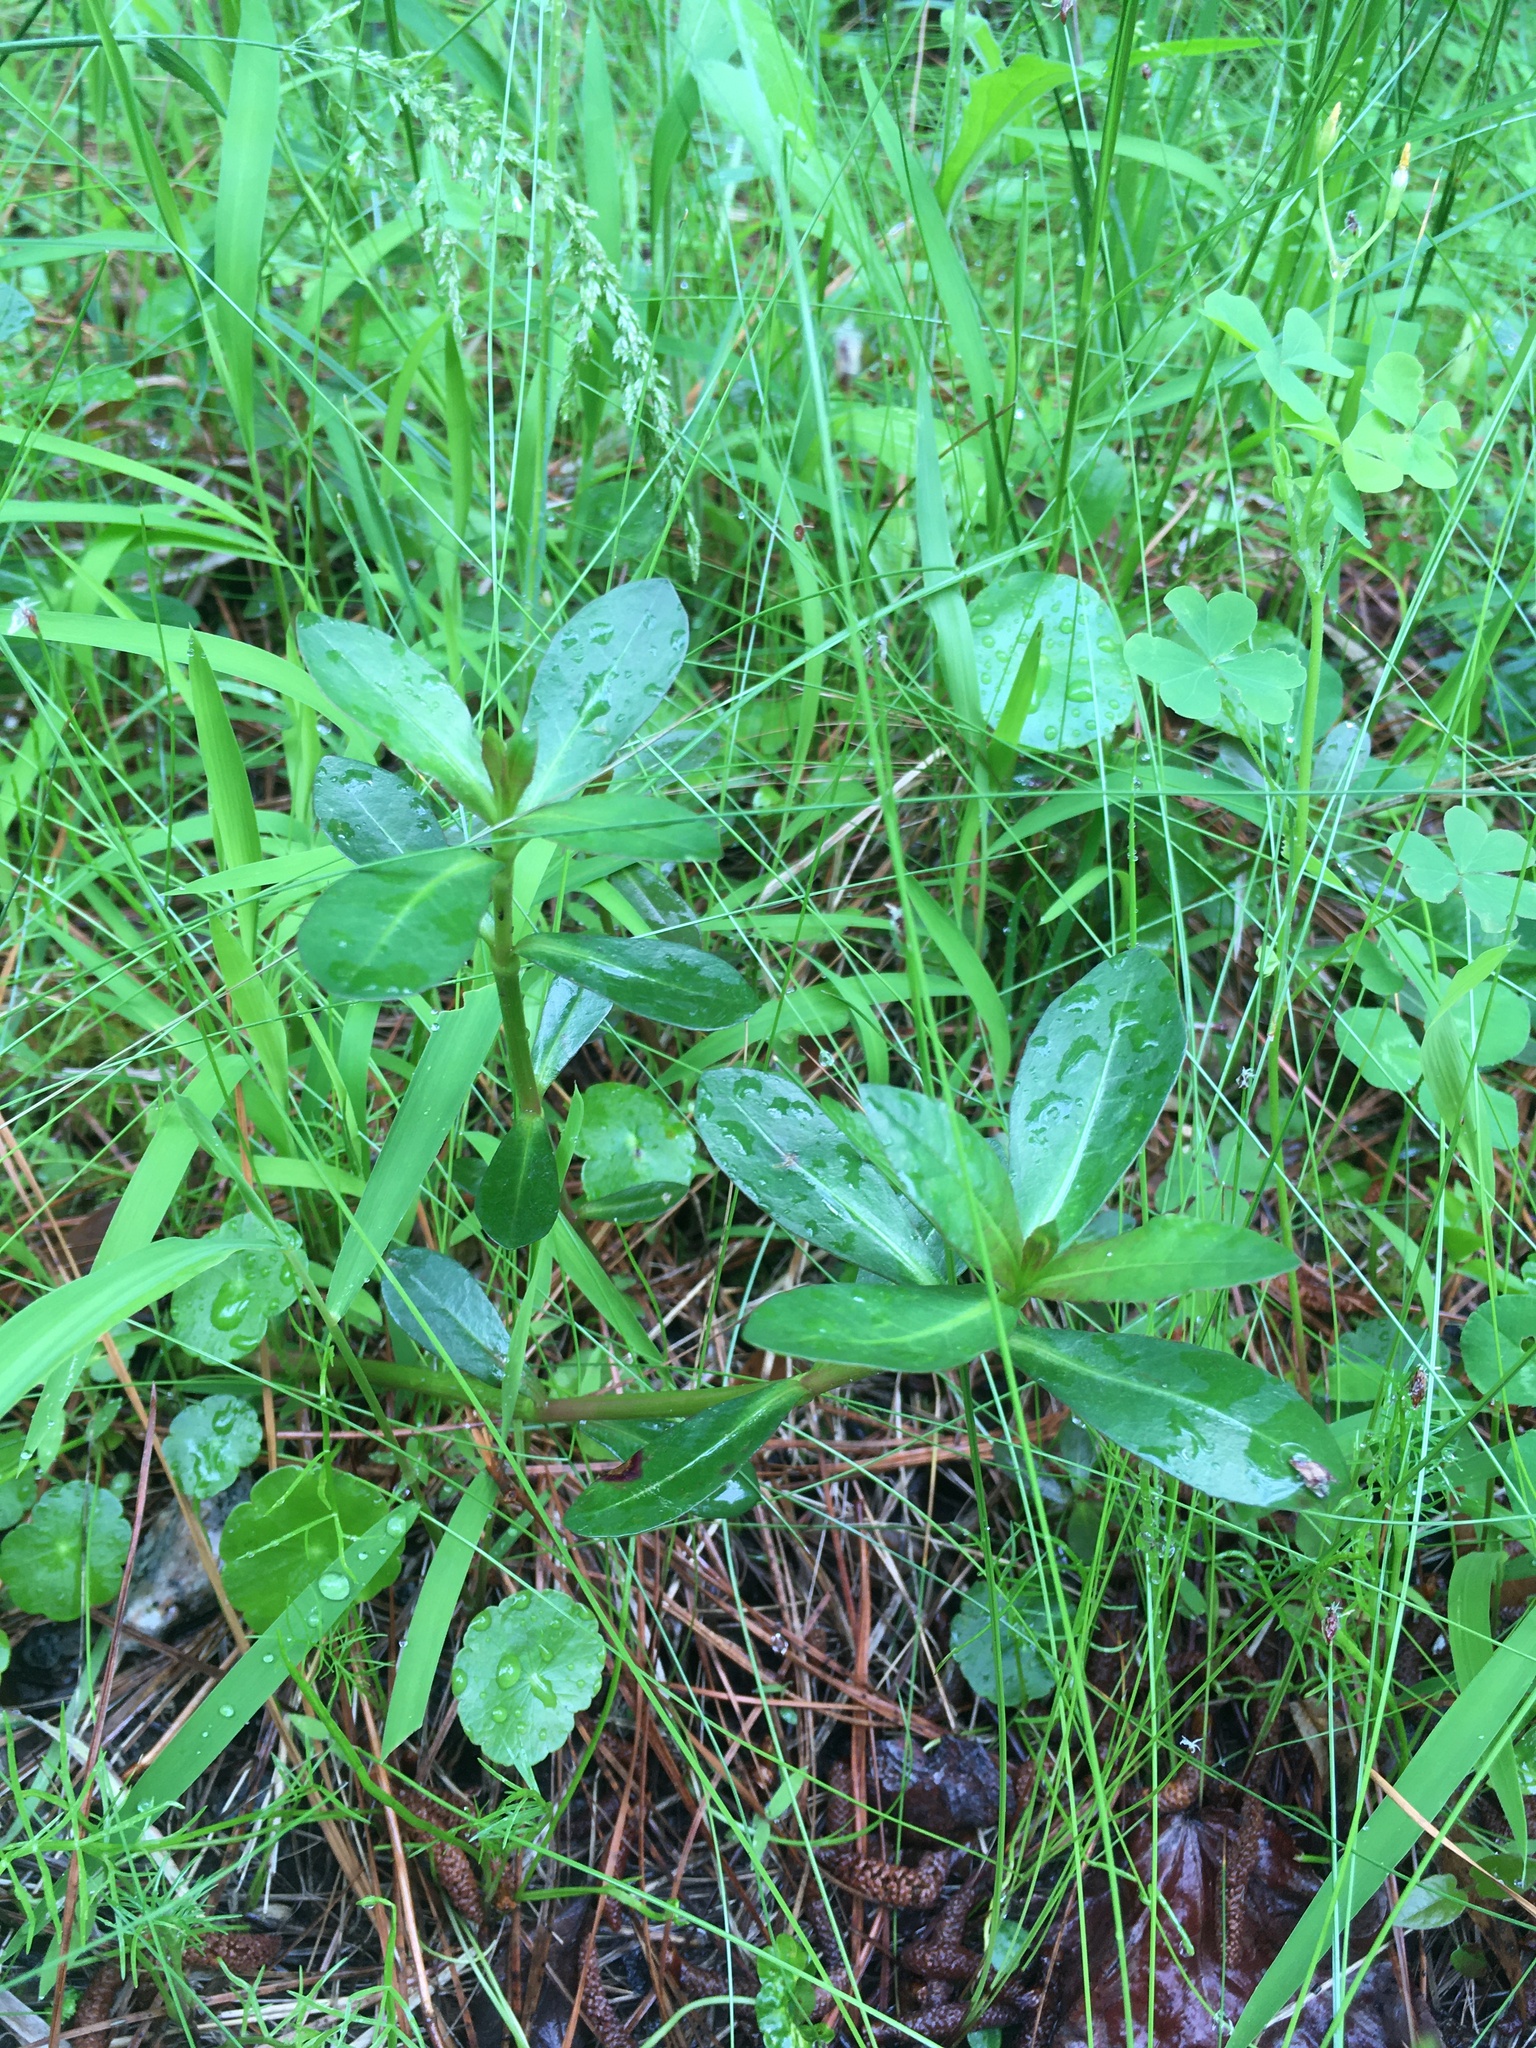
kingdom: Plantae
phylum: Tracheophyta
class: Magnoliopsida
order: Caryophyllales
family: Amaranthaceae
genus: Alternanthera
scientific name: Alternanthera philoxeroides
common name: Alligatorweed
